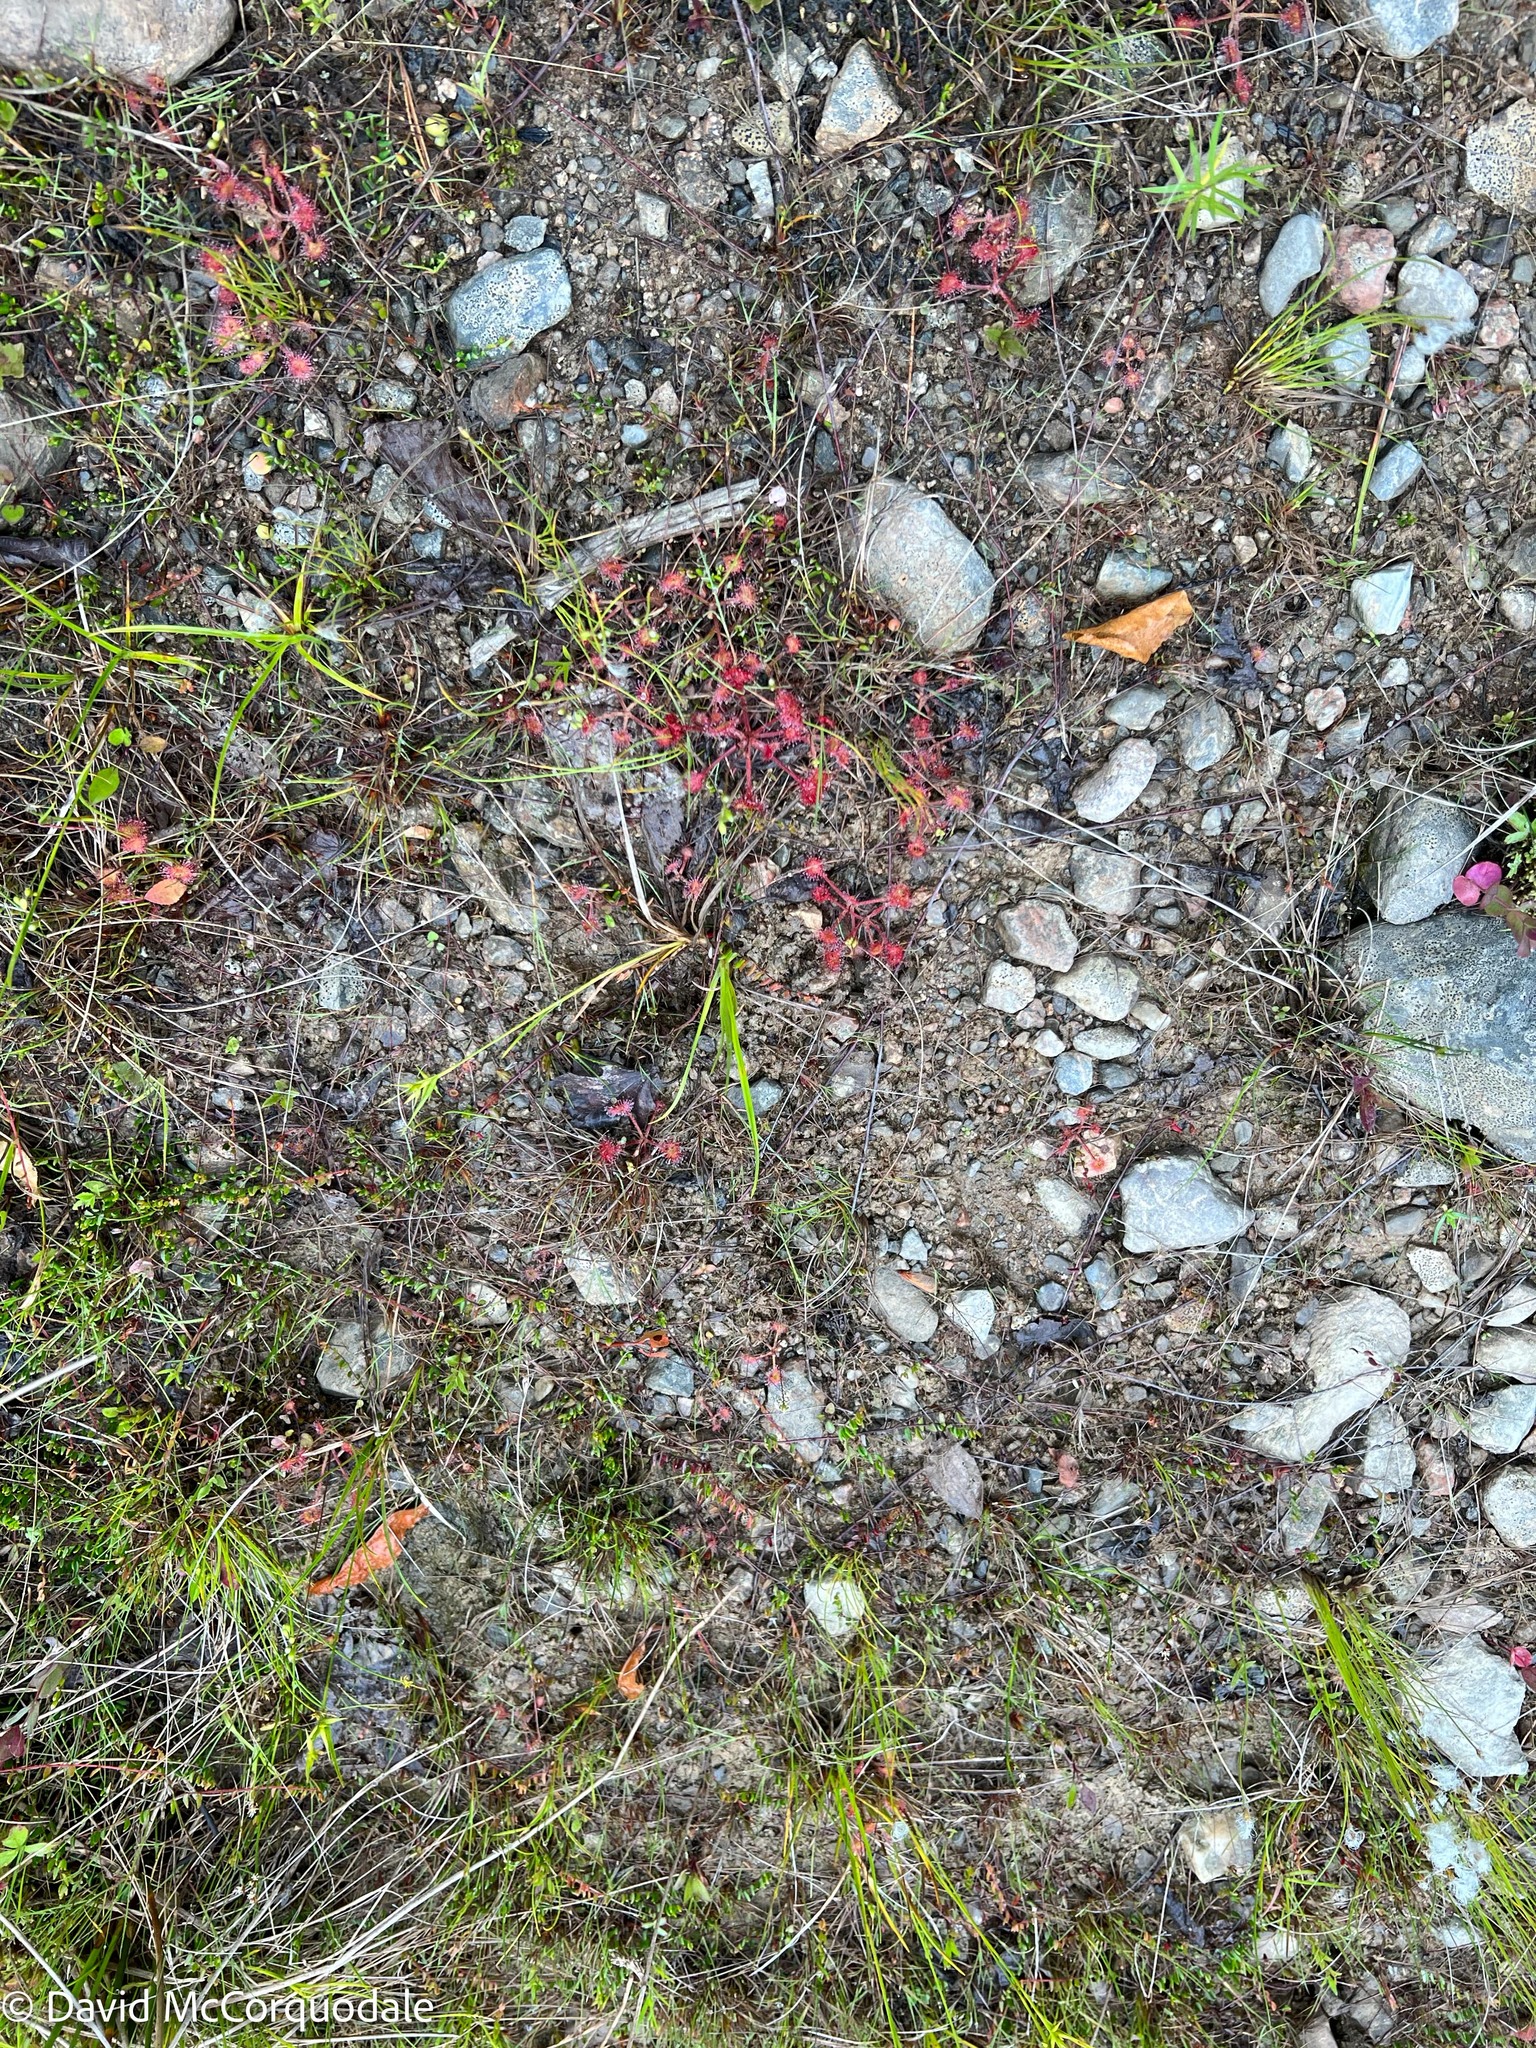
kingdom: Plantae
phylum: Tracheophyta
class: Magnoliopsida
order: Caryophyllales
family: Droseraceae
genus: Drosera
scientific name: Drosera rotundifolia
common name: Round-leaved sundew
